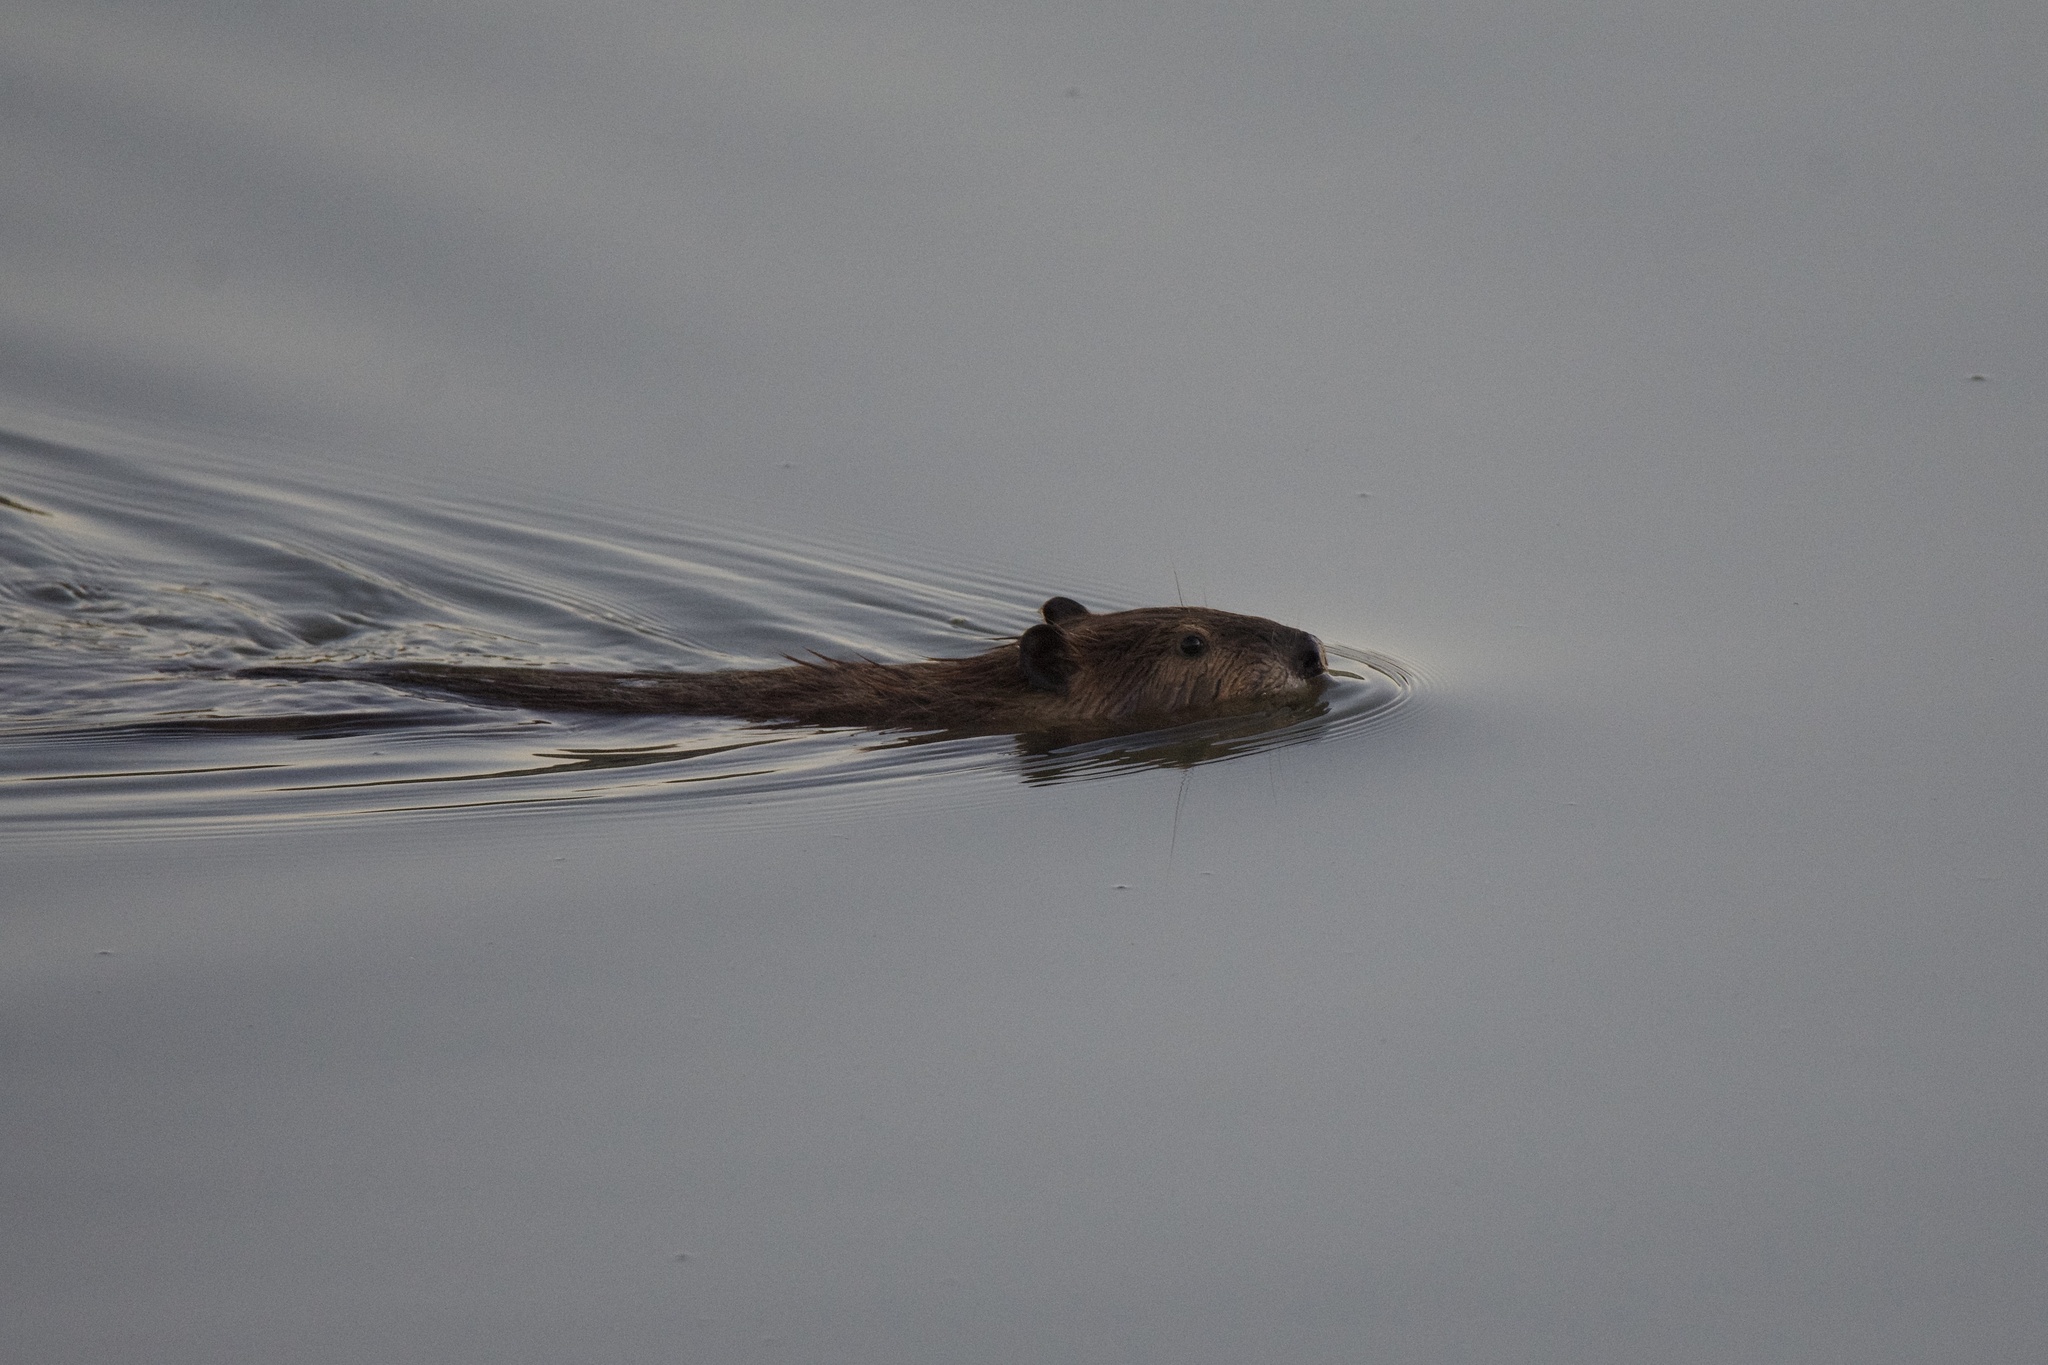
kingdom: Animalia
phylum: Chordata
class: Mammalia
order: Rodentia
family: Castoridae
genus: Castor
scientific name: Castor canadensis
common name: American beaver
